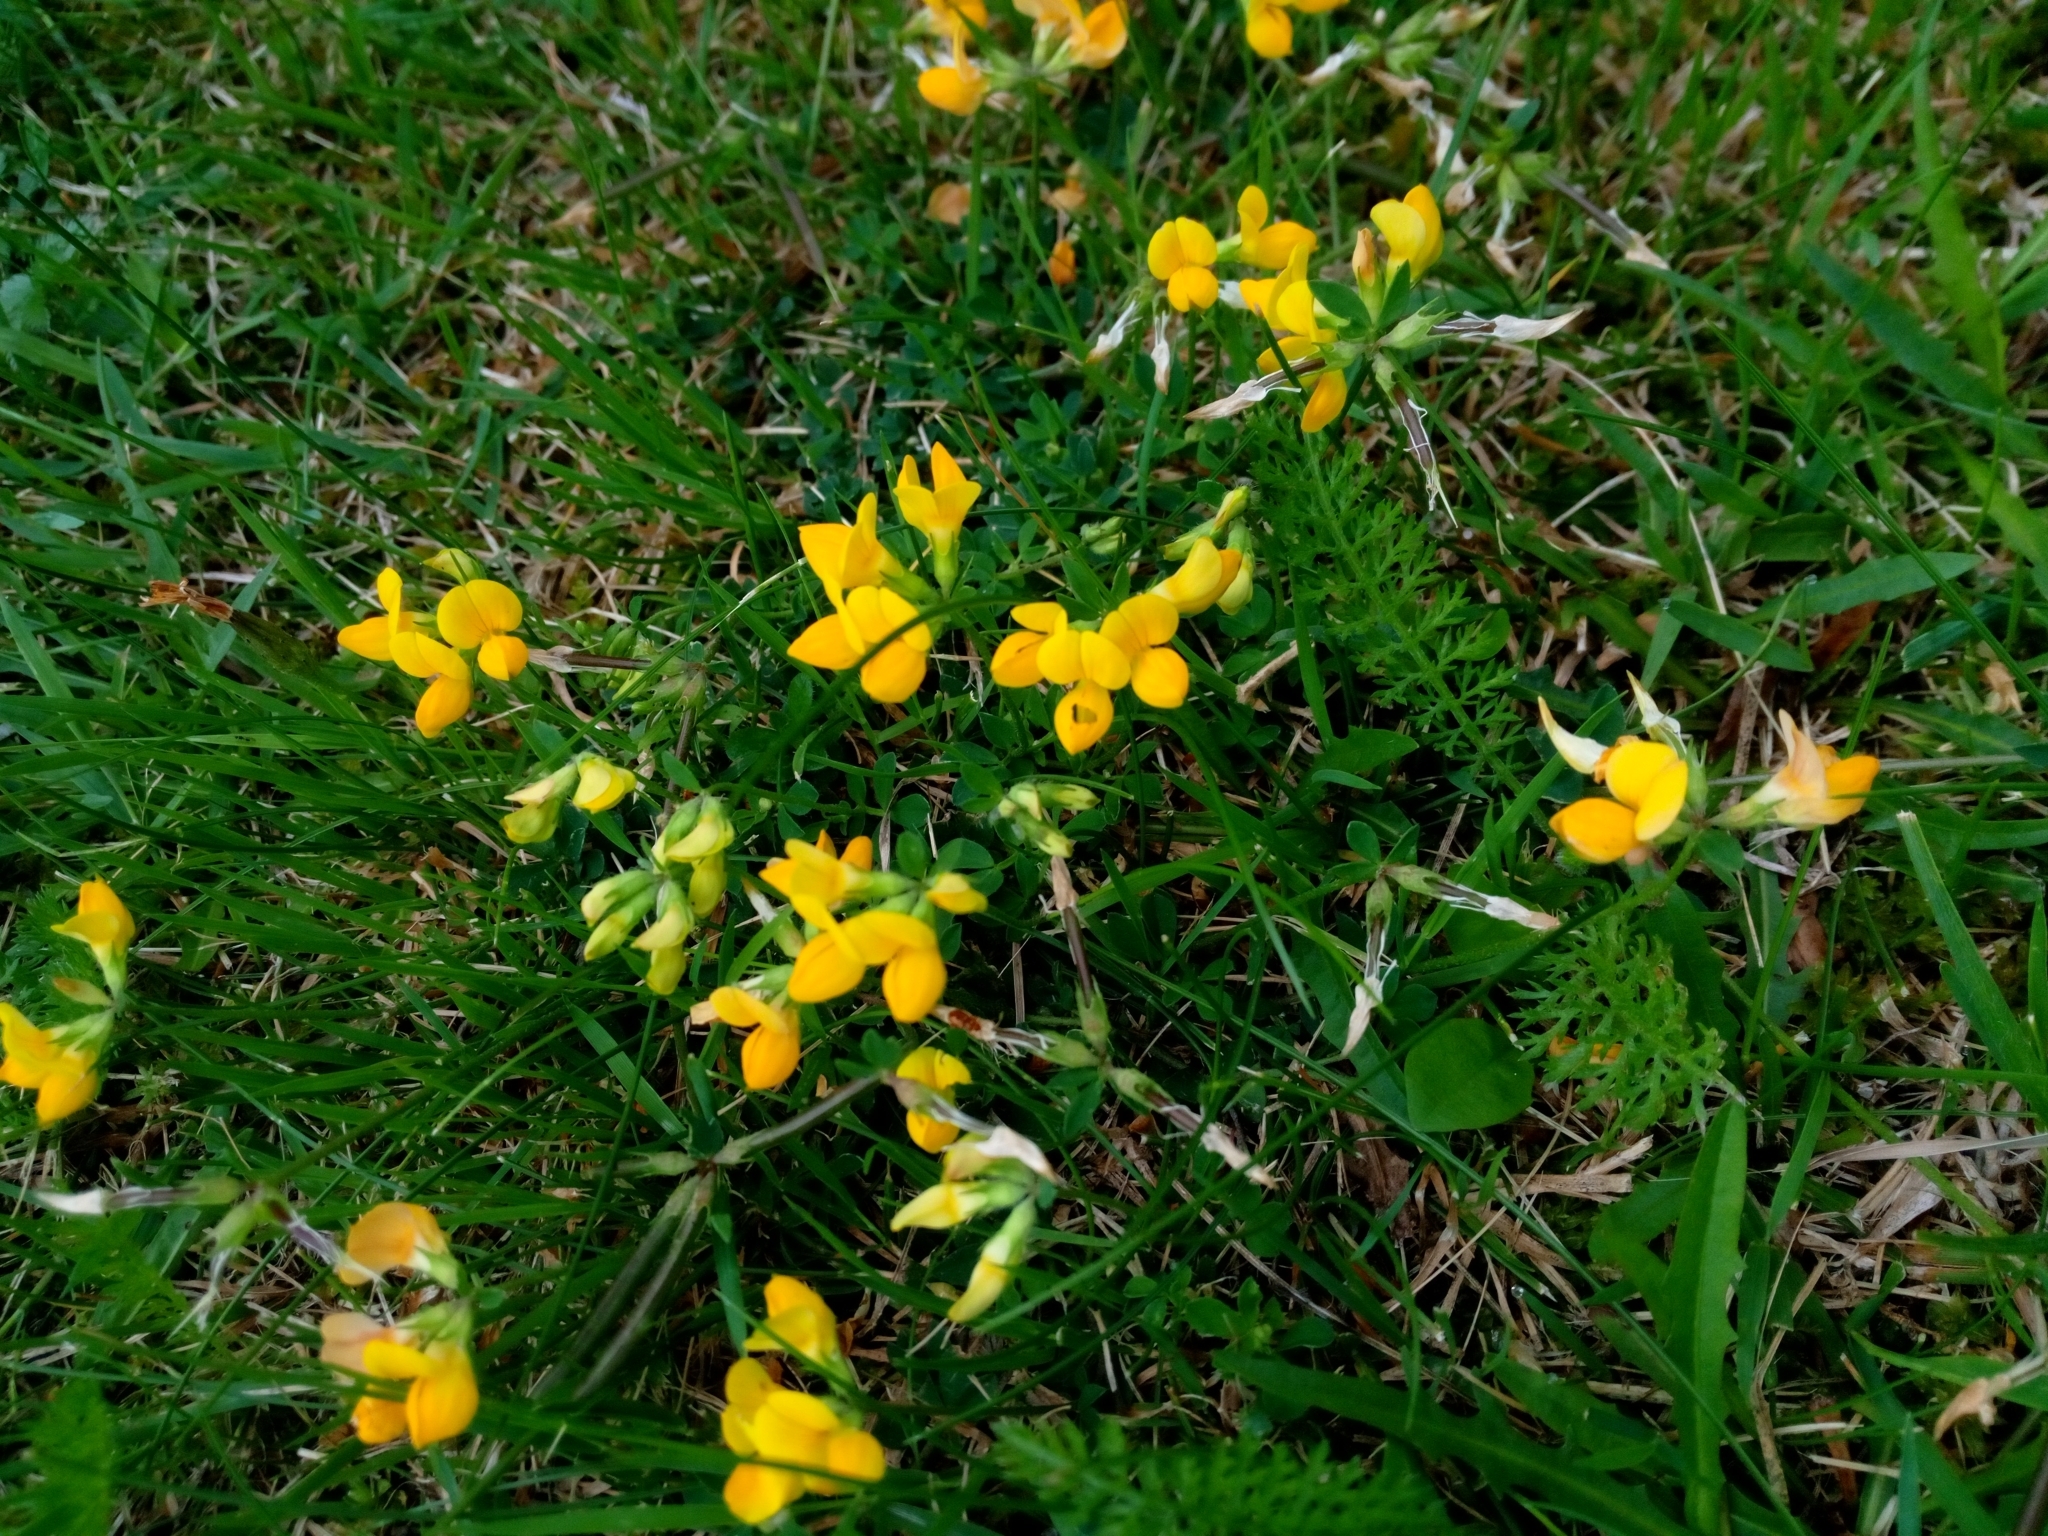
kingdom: Plantae
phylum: Tracheophyta
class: Magnoliopsida
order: Fabales
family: Fabaceae
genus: Lotus
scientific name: Lotus corniculatus
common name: Common bird's-foot-trefoil
